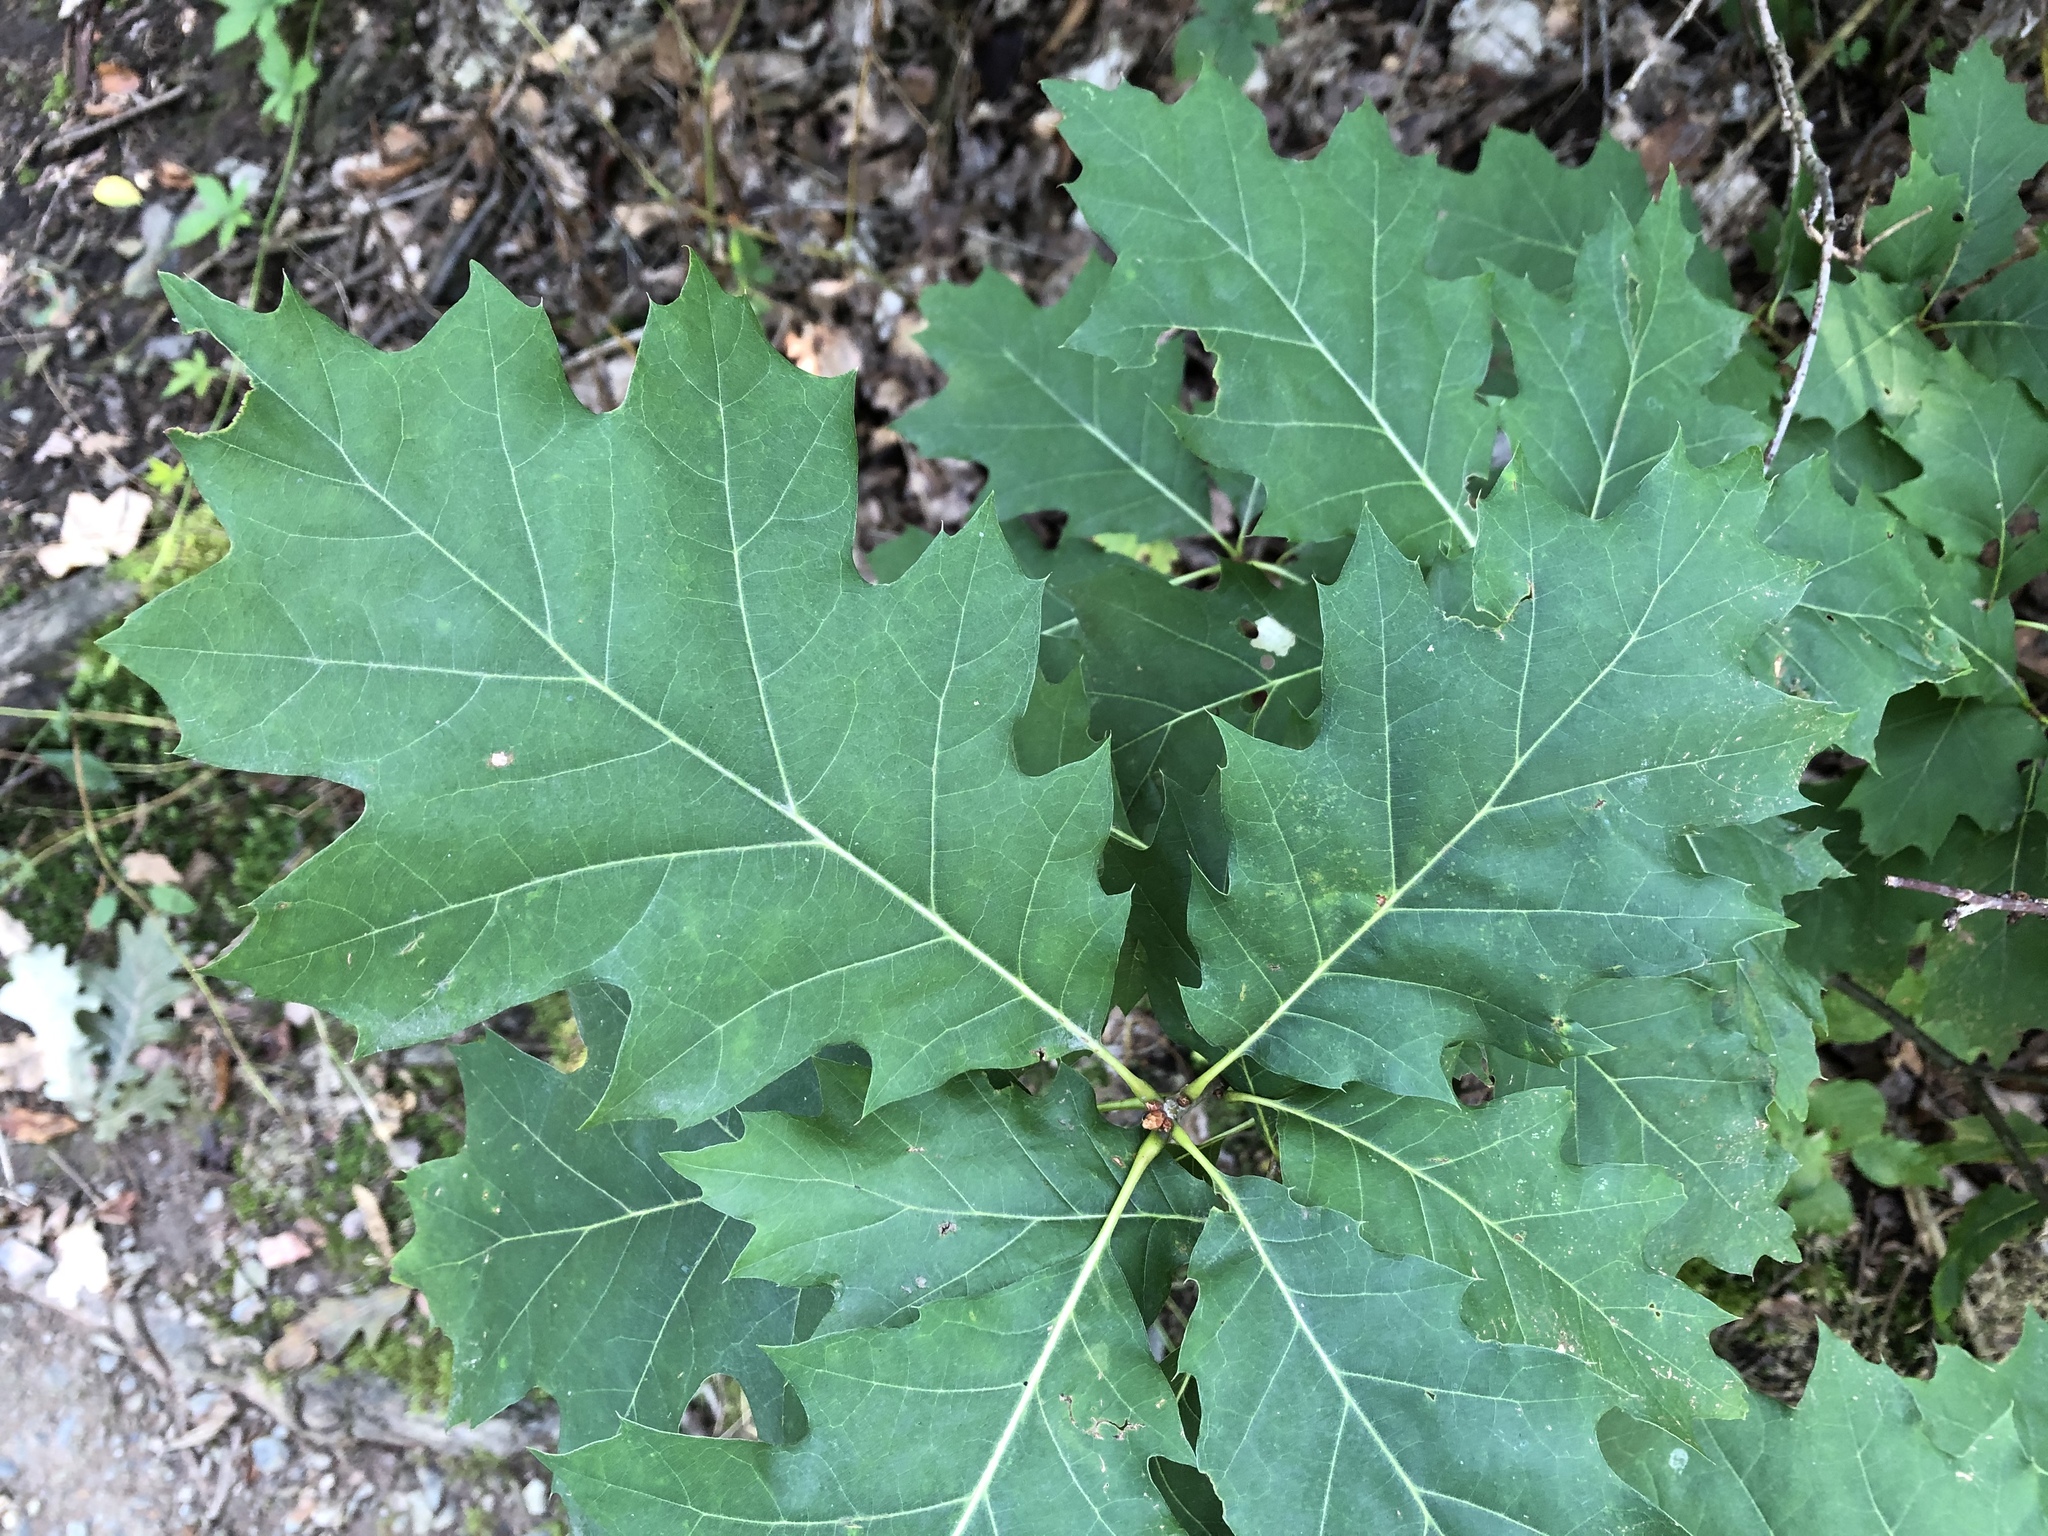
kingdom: Plantae
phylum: Tracheophyta
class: Magnoliopsida
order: Fagales
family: Fagaceae
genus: Quercus
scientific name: Quercus rubra
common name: Red oak
